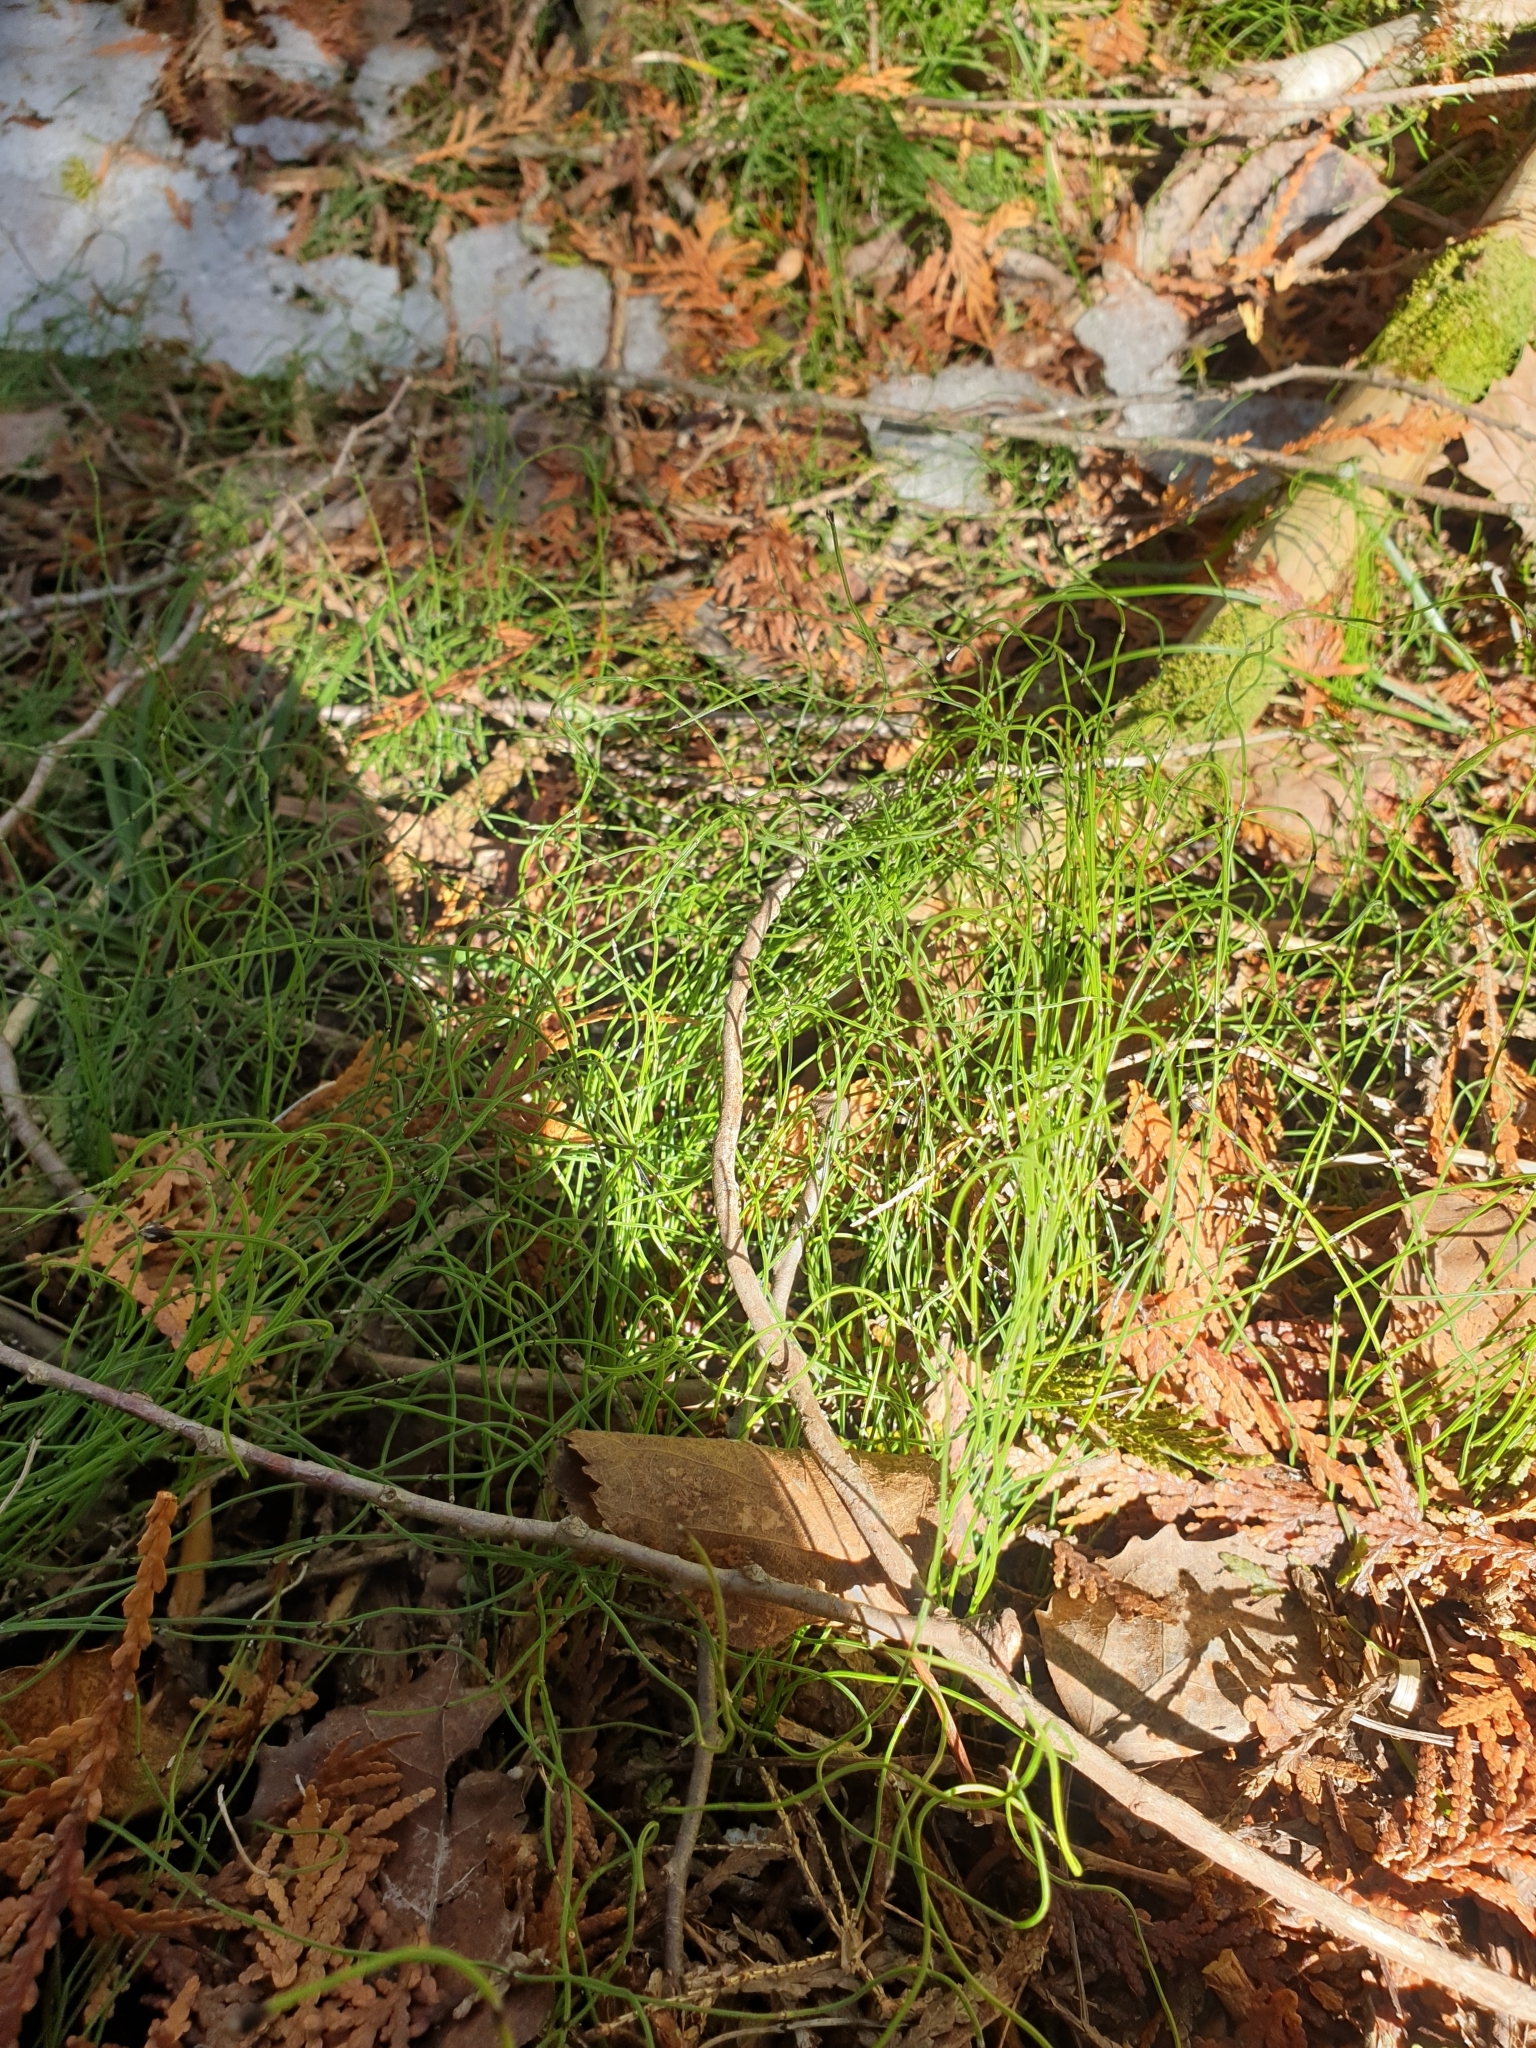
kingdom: Plantae
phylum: Tracheophyta
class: Polypodiopsida
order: Equisetales
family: Equisetaceae
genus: Equisetum
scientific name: Equisetum scirpoides
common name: Delicate horsetail
